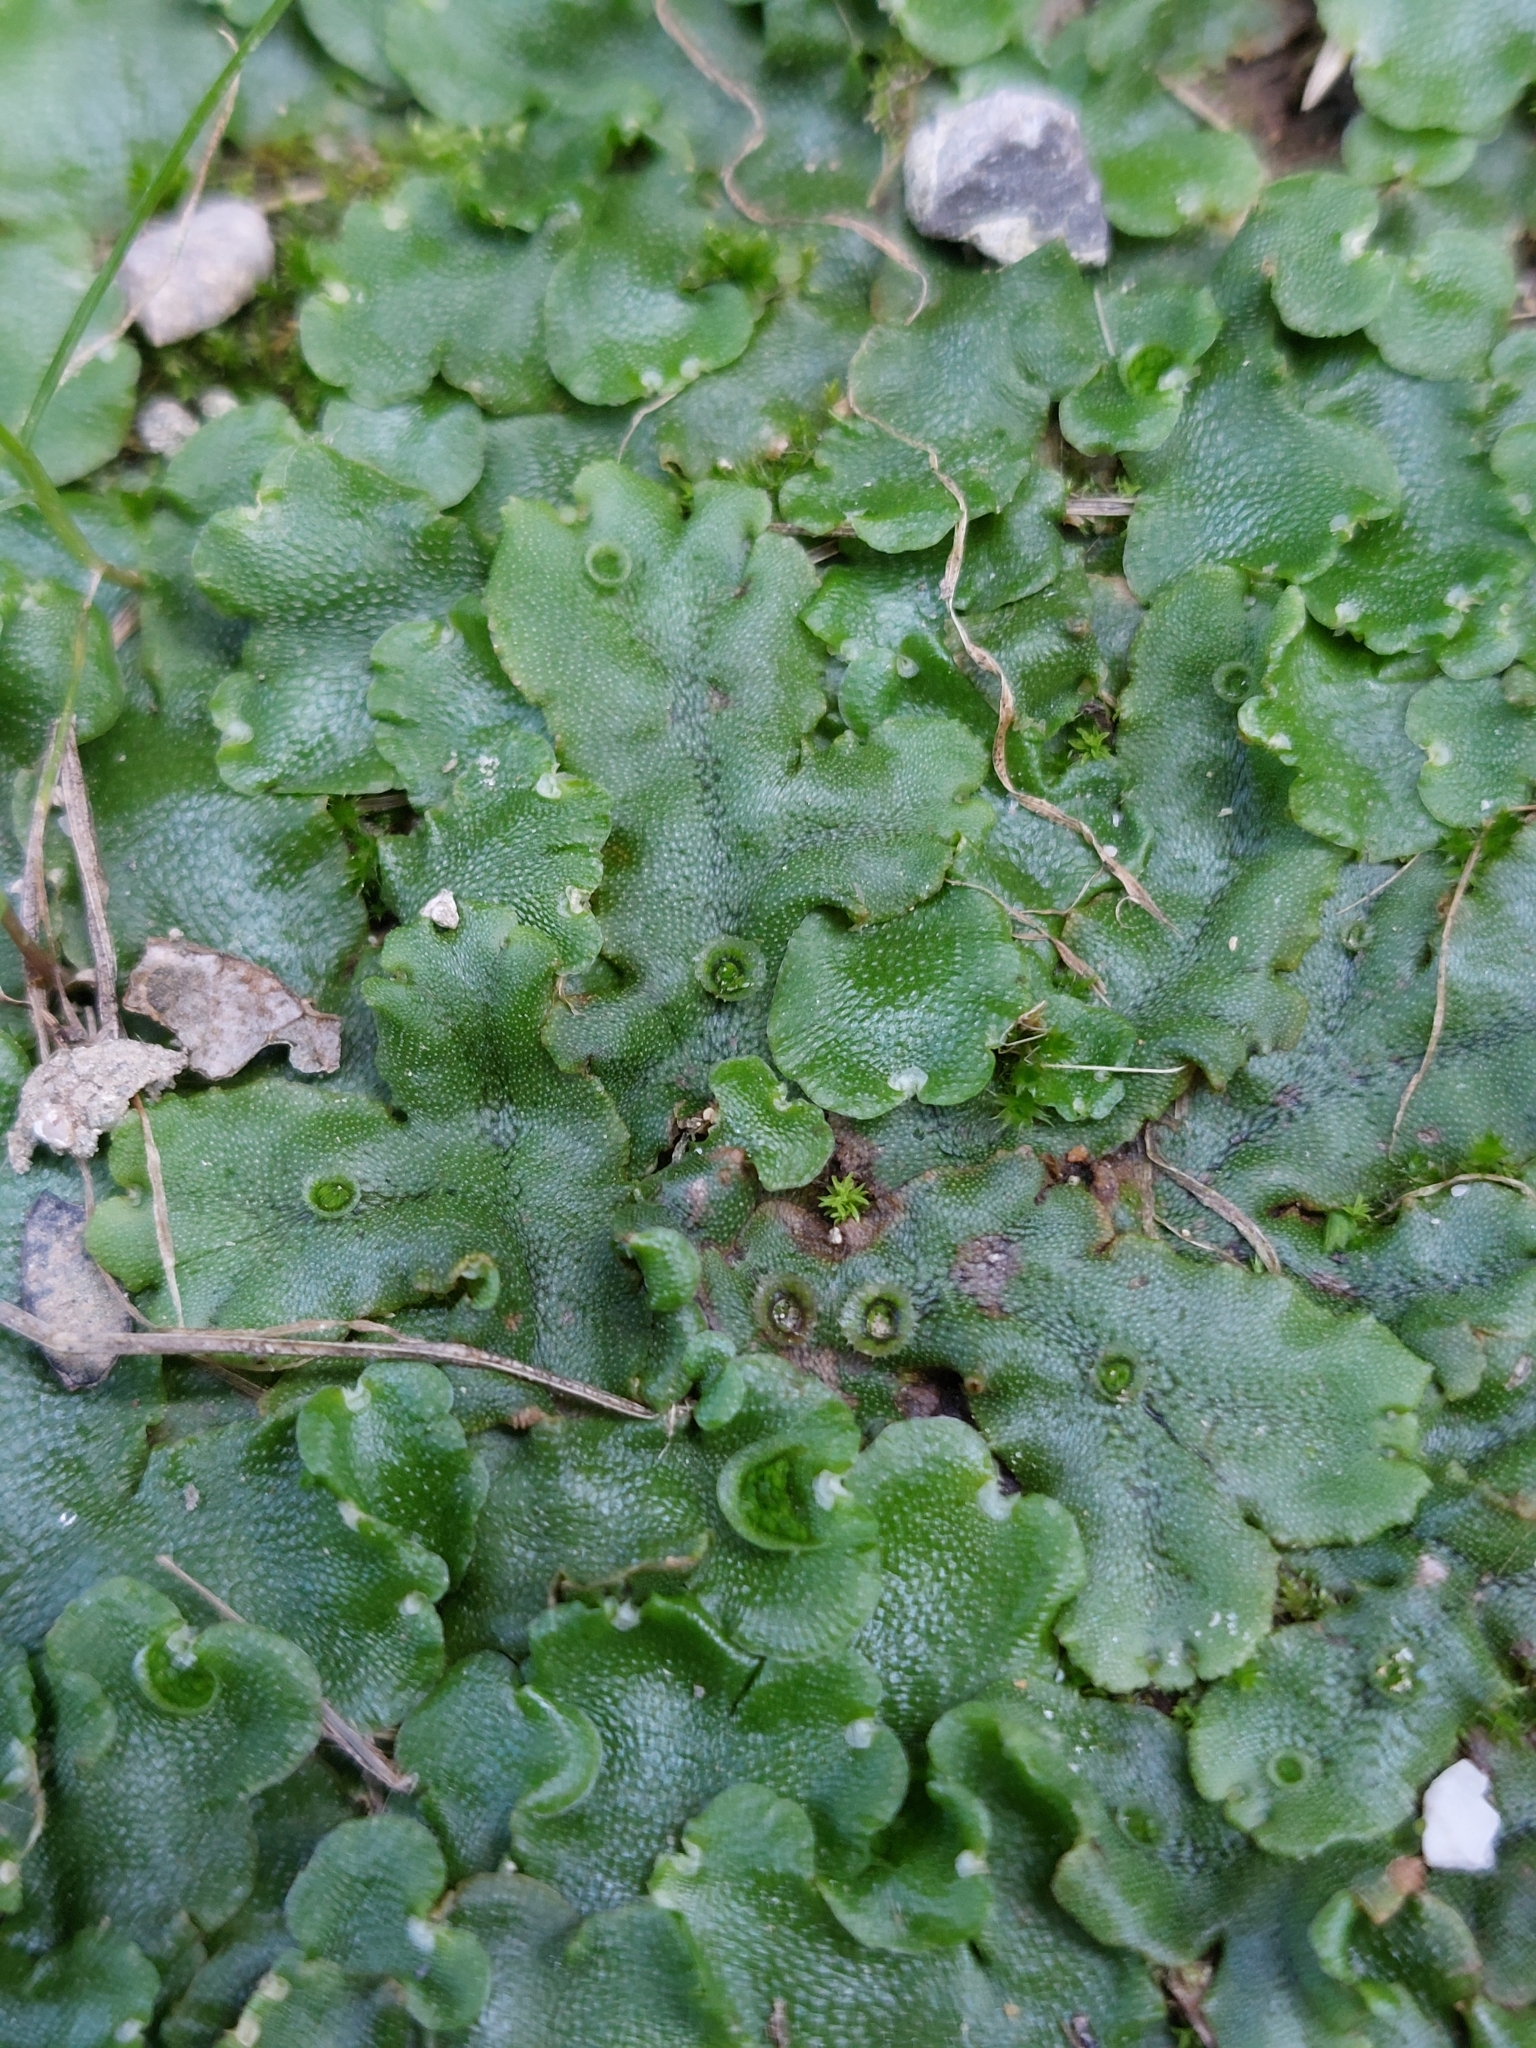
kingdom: Plantae
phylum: Marchantiophyta
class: Marchantiopsida
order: Lunulariales
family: Lunulariaceae
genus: Lunularia
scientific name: Lunularia cruciata
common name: Crescent-cup liverwort
